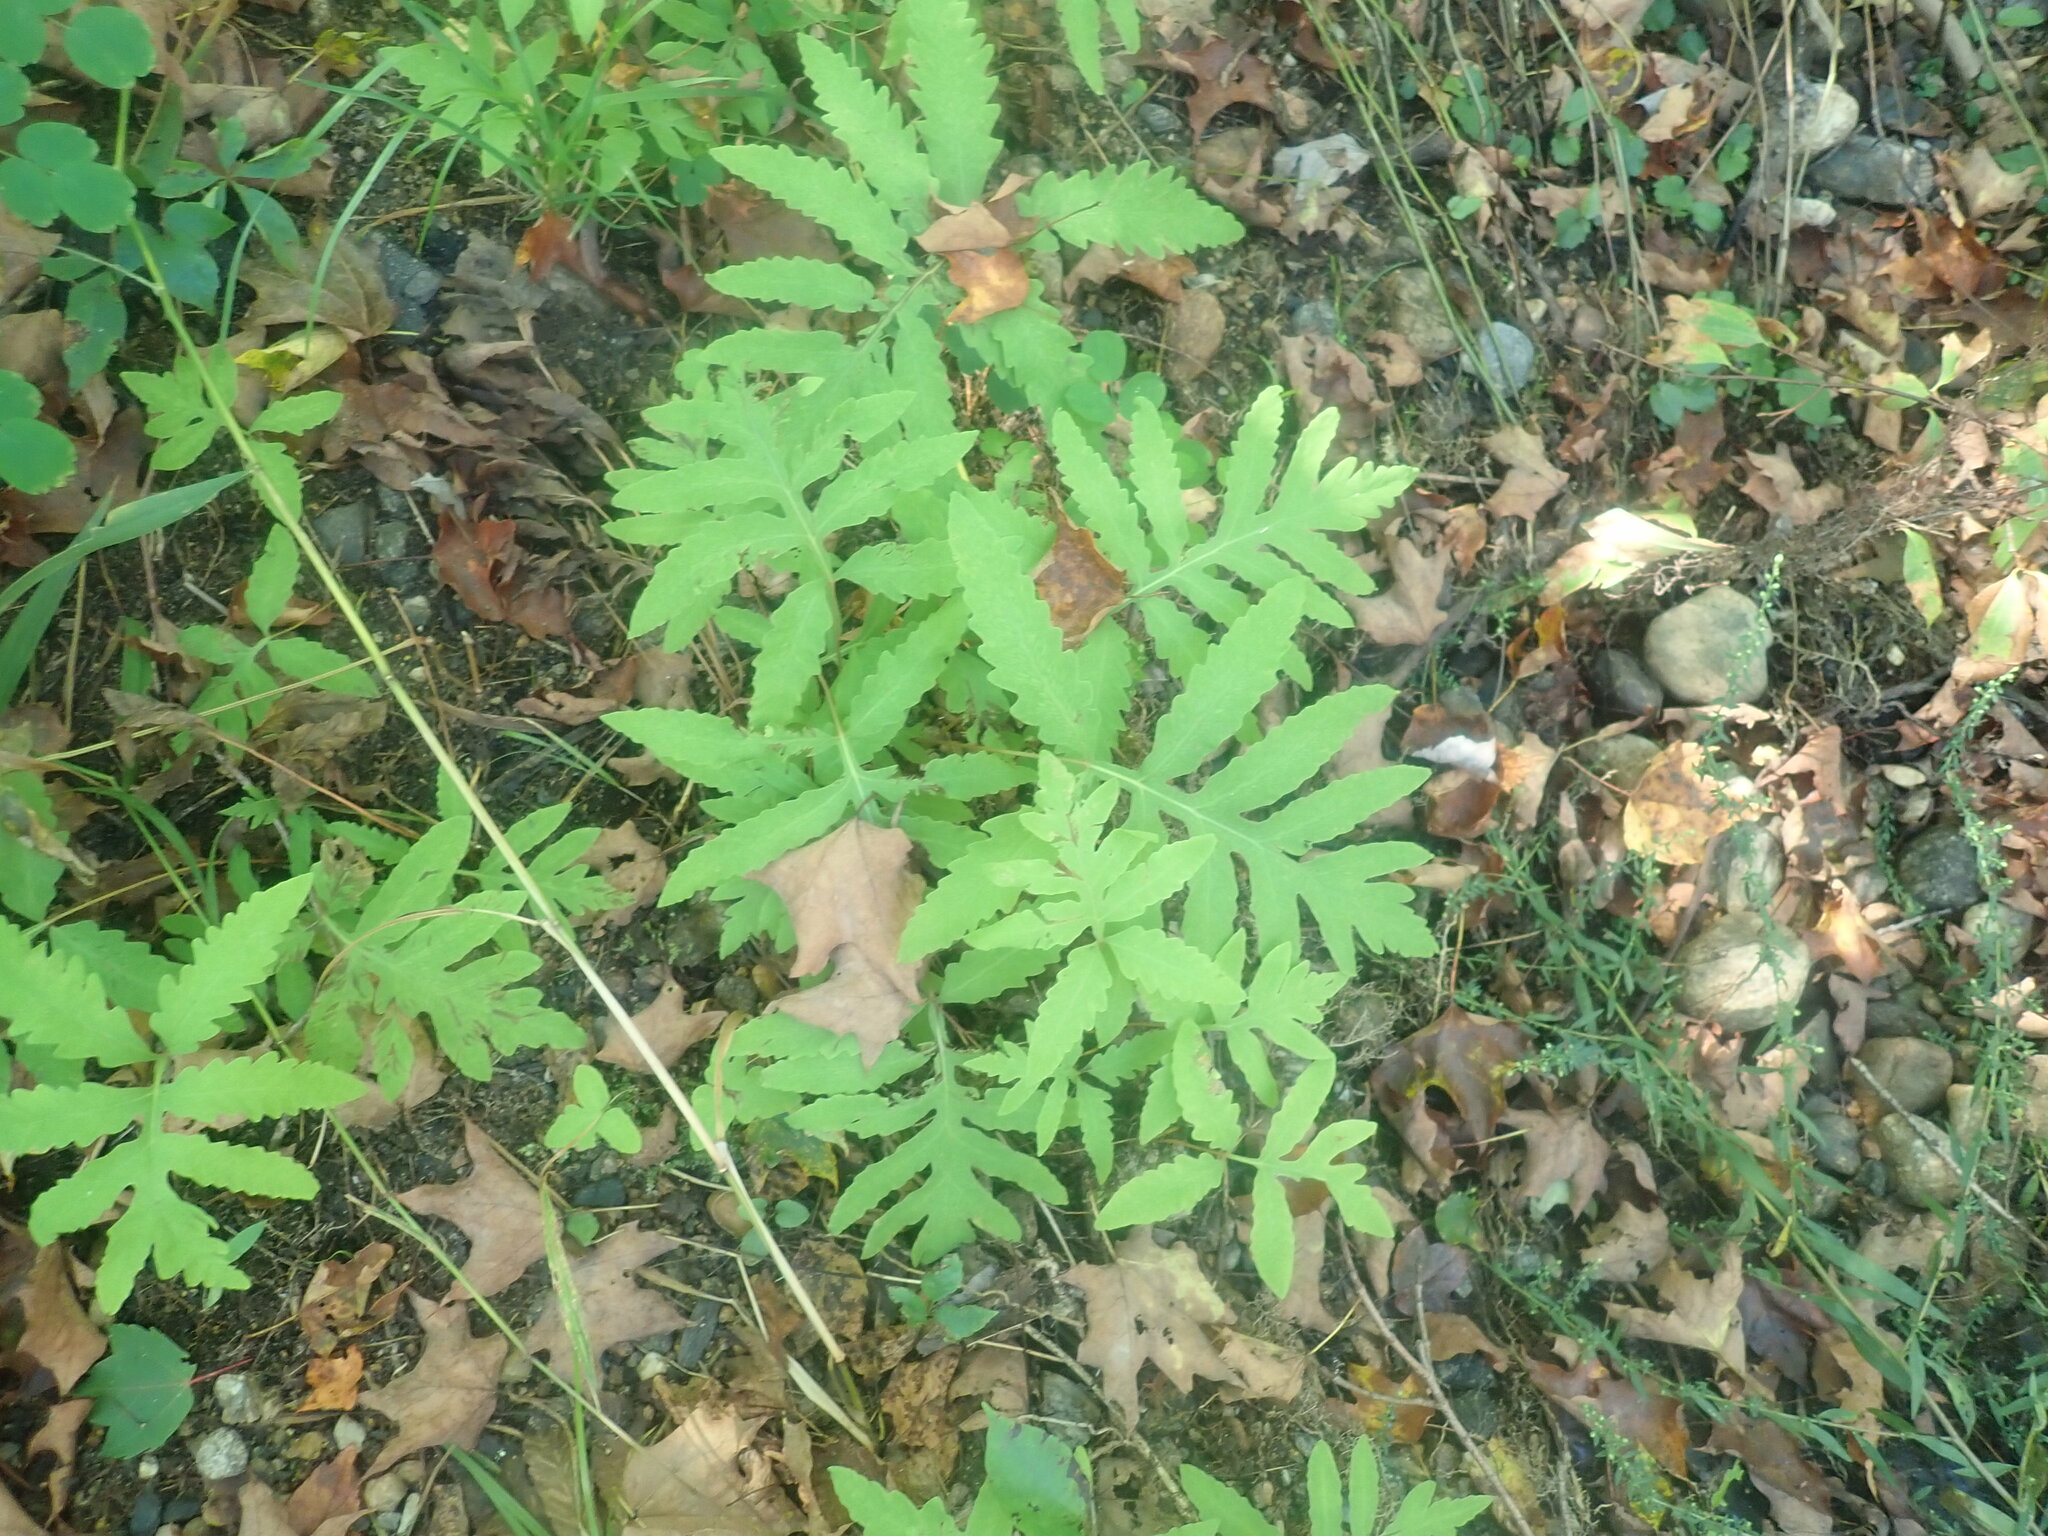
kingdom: Plantae
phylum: Tracheophyta
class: Polypodiopsida
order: Polypodiales
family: Onocleaceae
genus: Onoclea
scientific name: Onoclea sensibilis
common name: Sensitive fern
